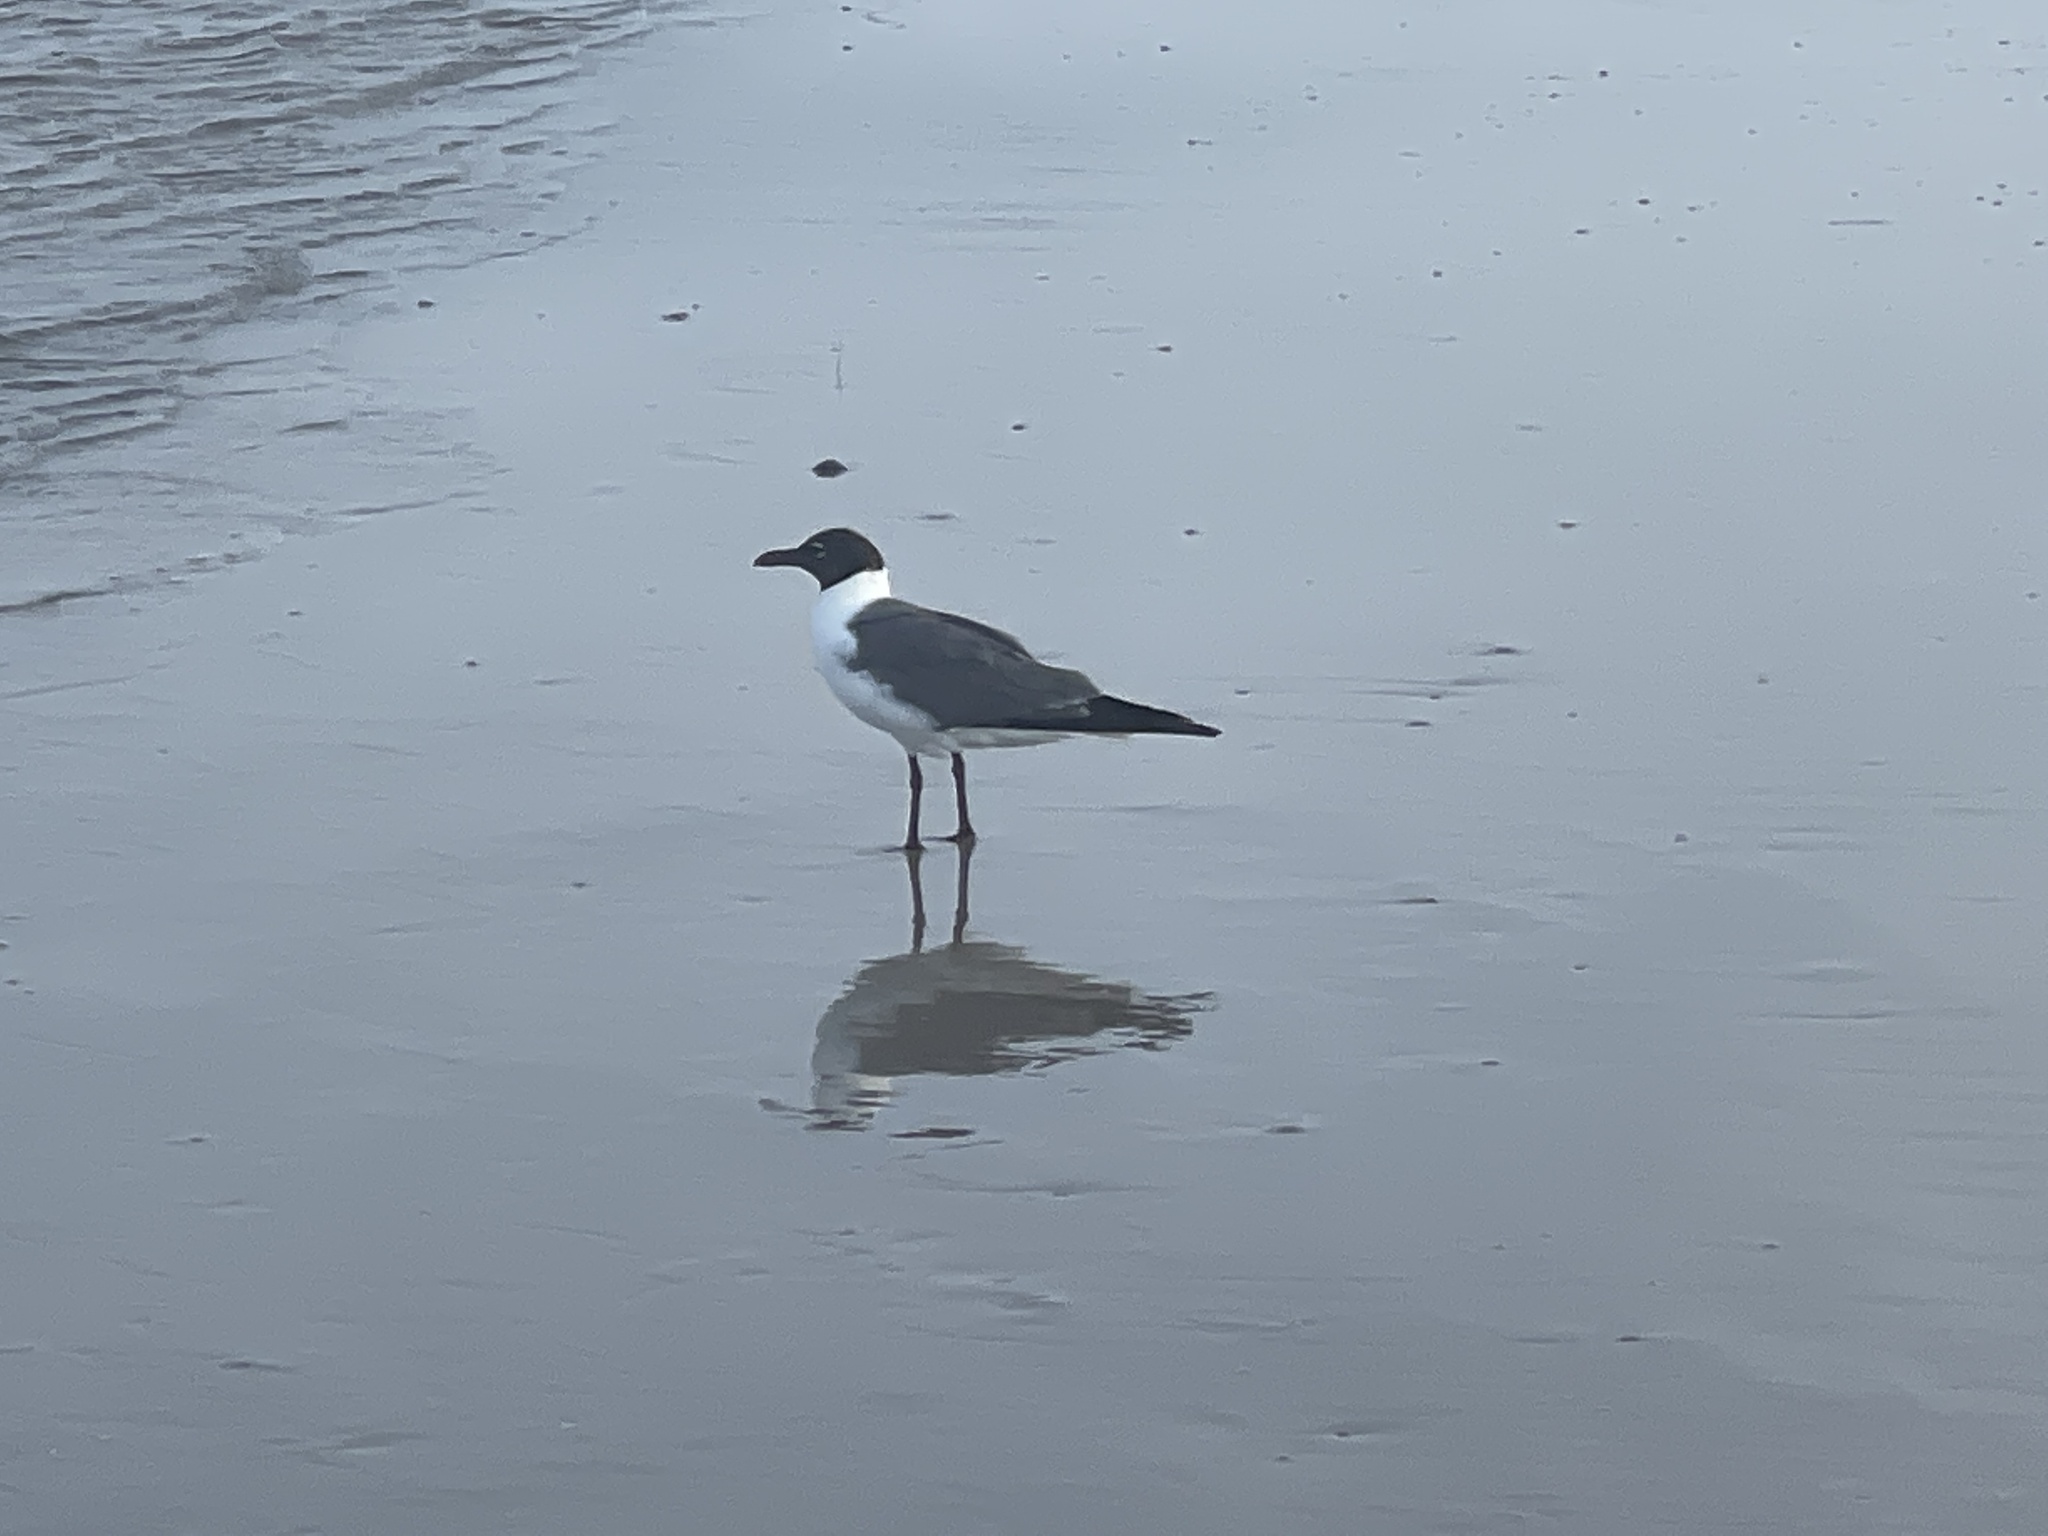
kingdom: Animalia
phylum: Chordata
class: Aves
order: Charadriiformes
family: Laridae
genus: Leucophaeus
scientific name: Leucophaeus atricilla
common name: Laughing gull
